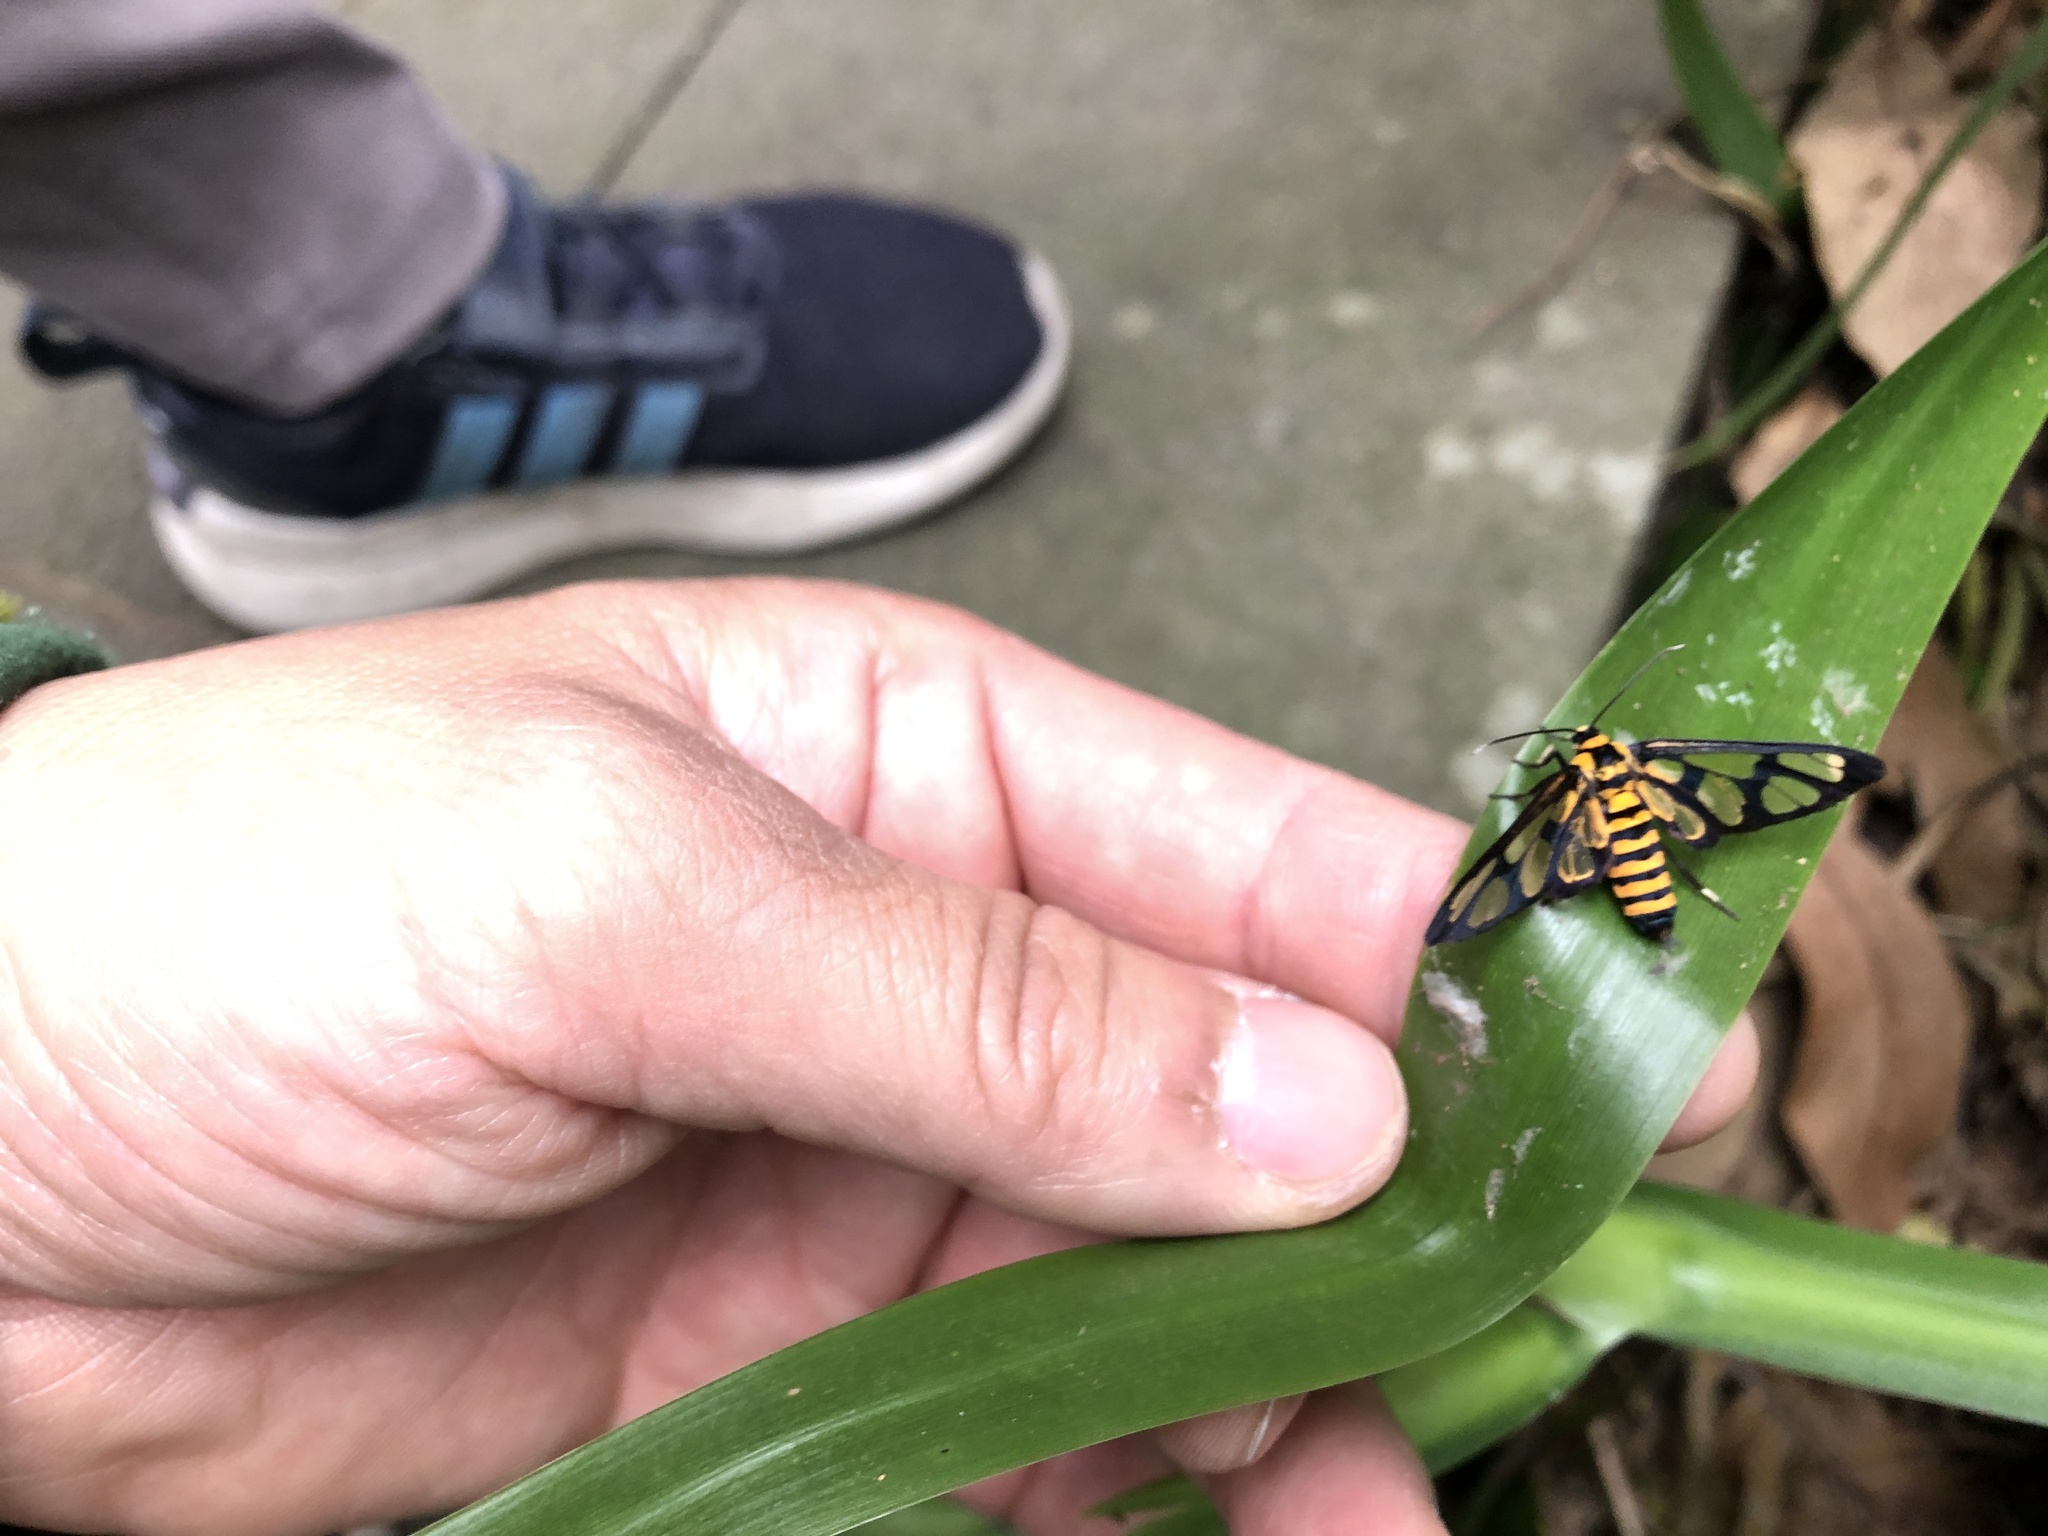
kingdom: Animalia
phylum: Arthropoda
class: Insecta
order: Lepidoptera
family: Erebidae
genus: Amata
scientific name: Amata persimilis
